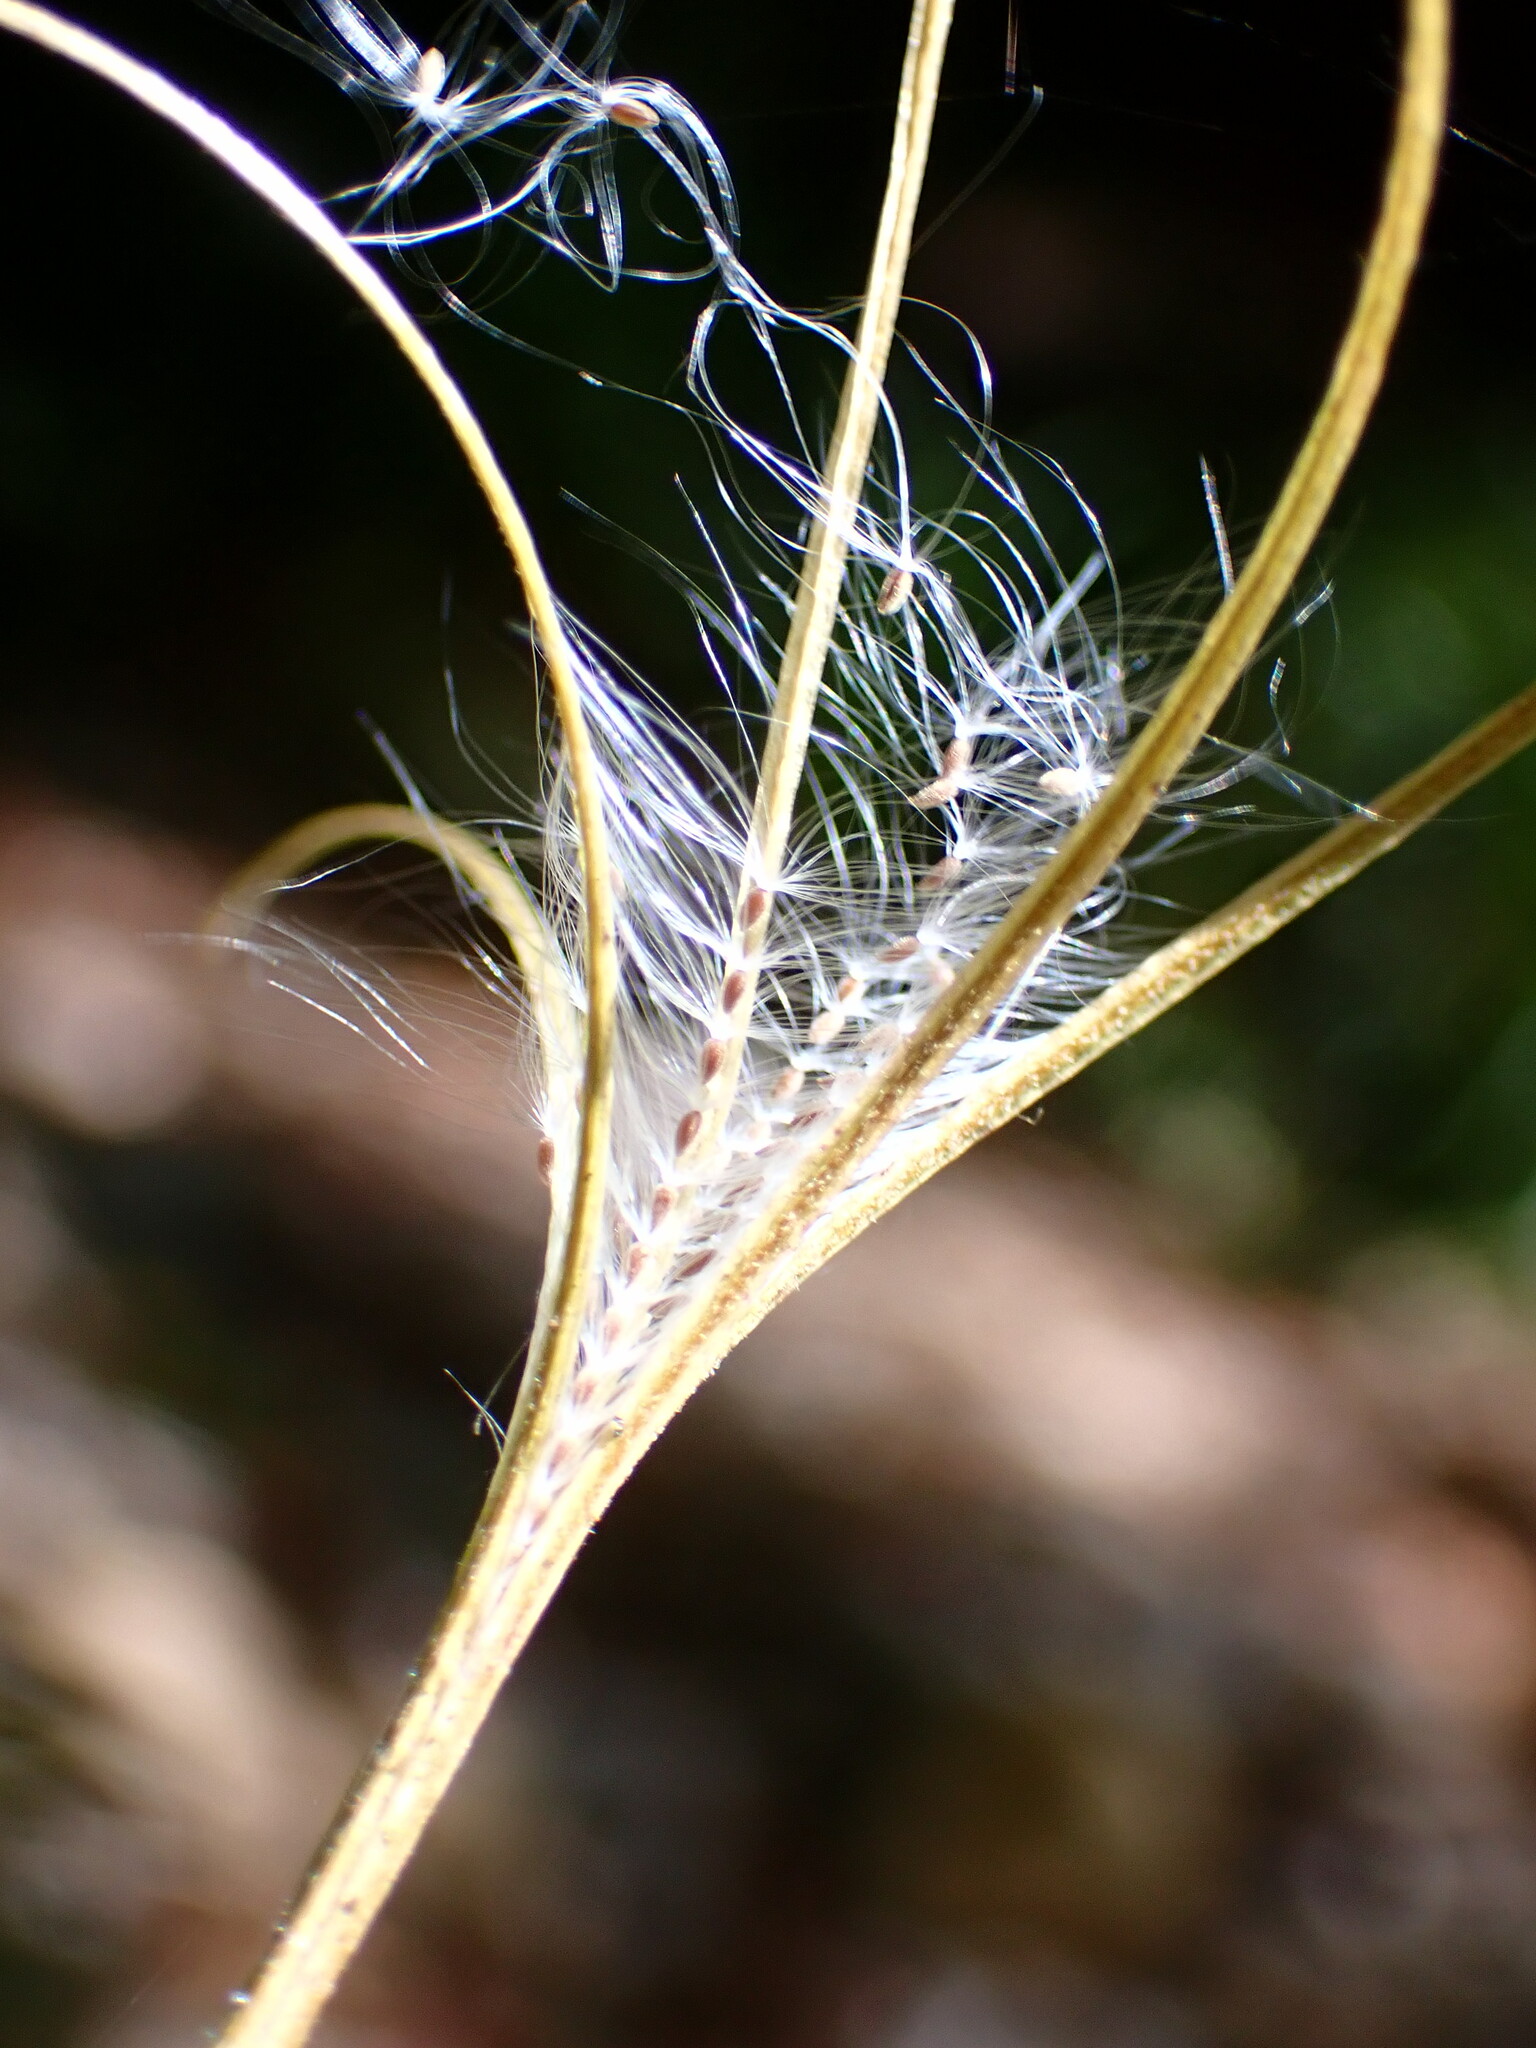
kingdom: Plantae
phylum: Tracheophyta
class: Magnoliopsida
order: Myrtales
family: Onagraceae
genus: Epilobium
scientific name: Epilobium brachycarpum
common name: Annual willowherb
